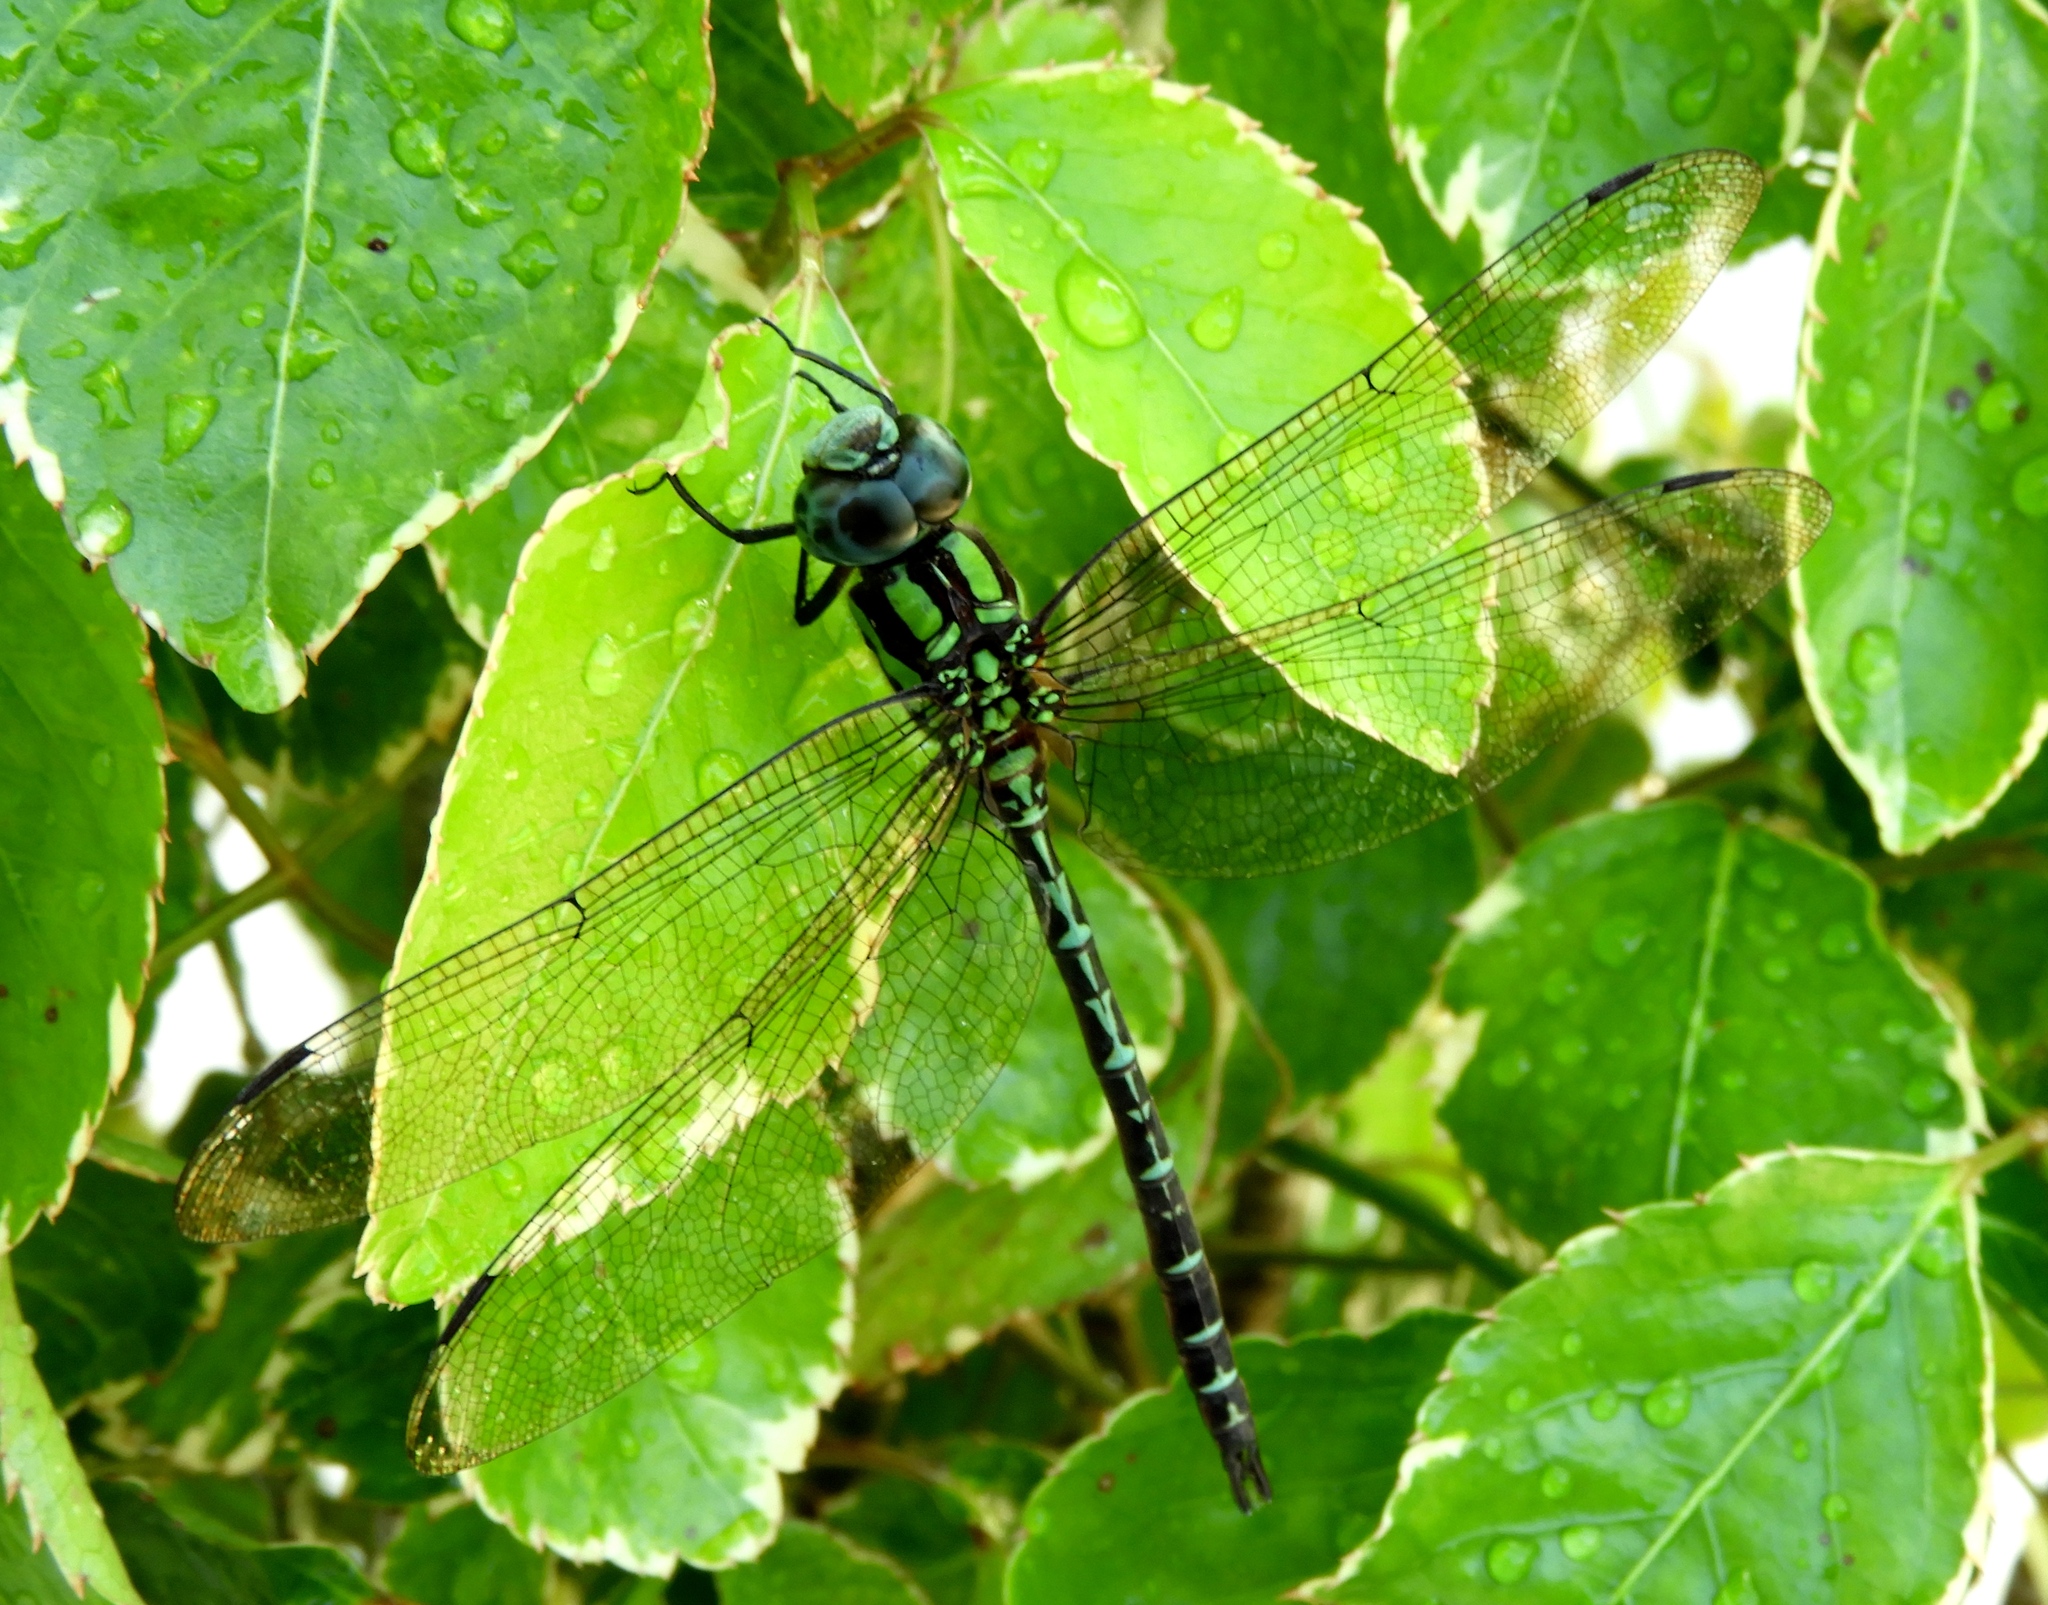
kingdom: Animalia
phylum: Arthropoda
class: Insecta
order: Odonata
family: Aeshnidae
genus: Remartinia
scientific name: Remartinia secreta
